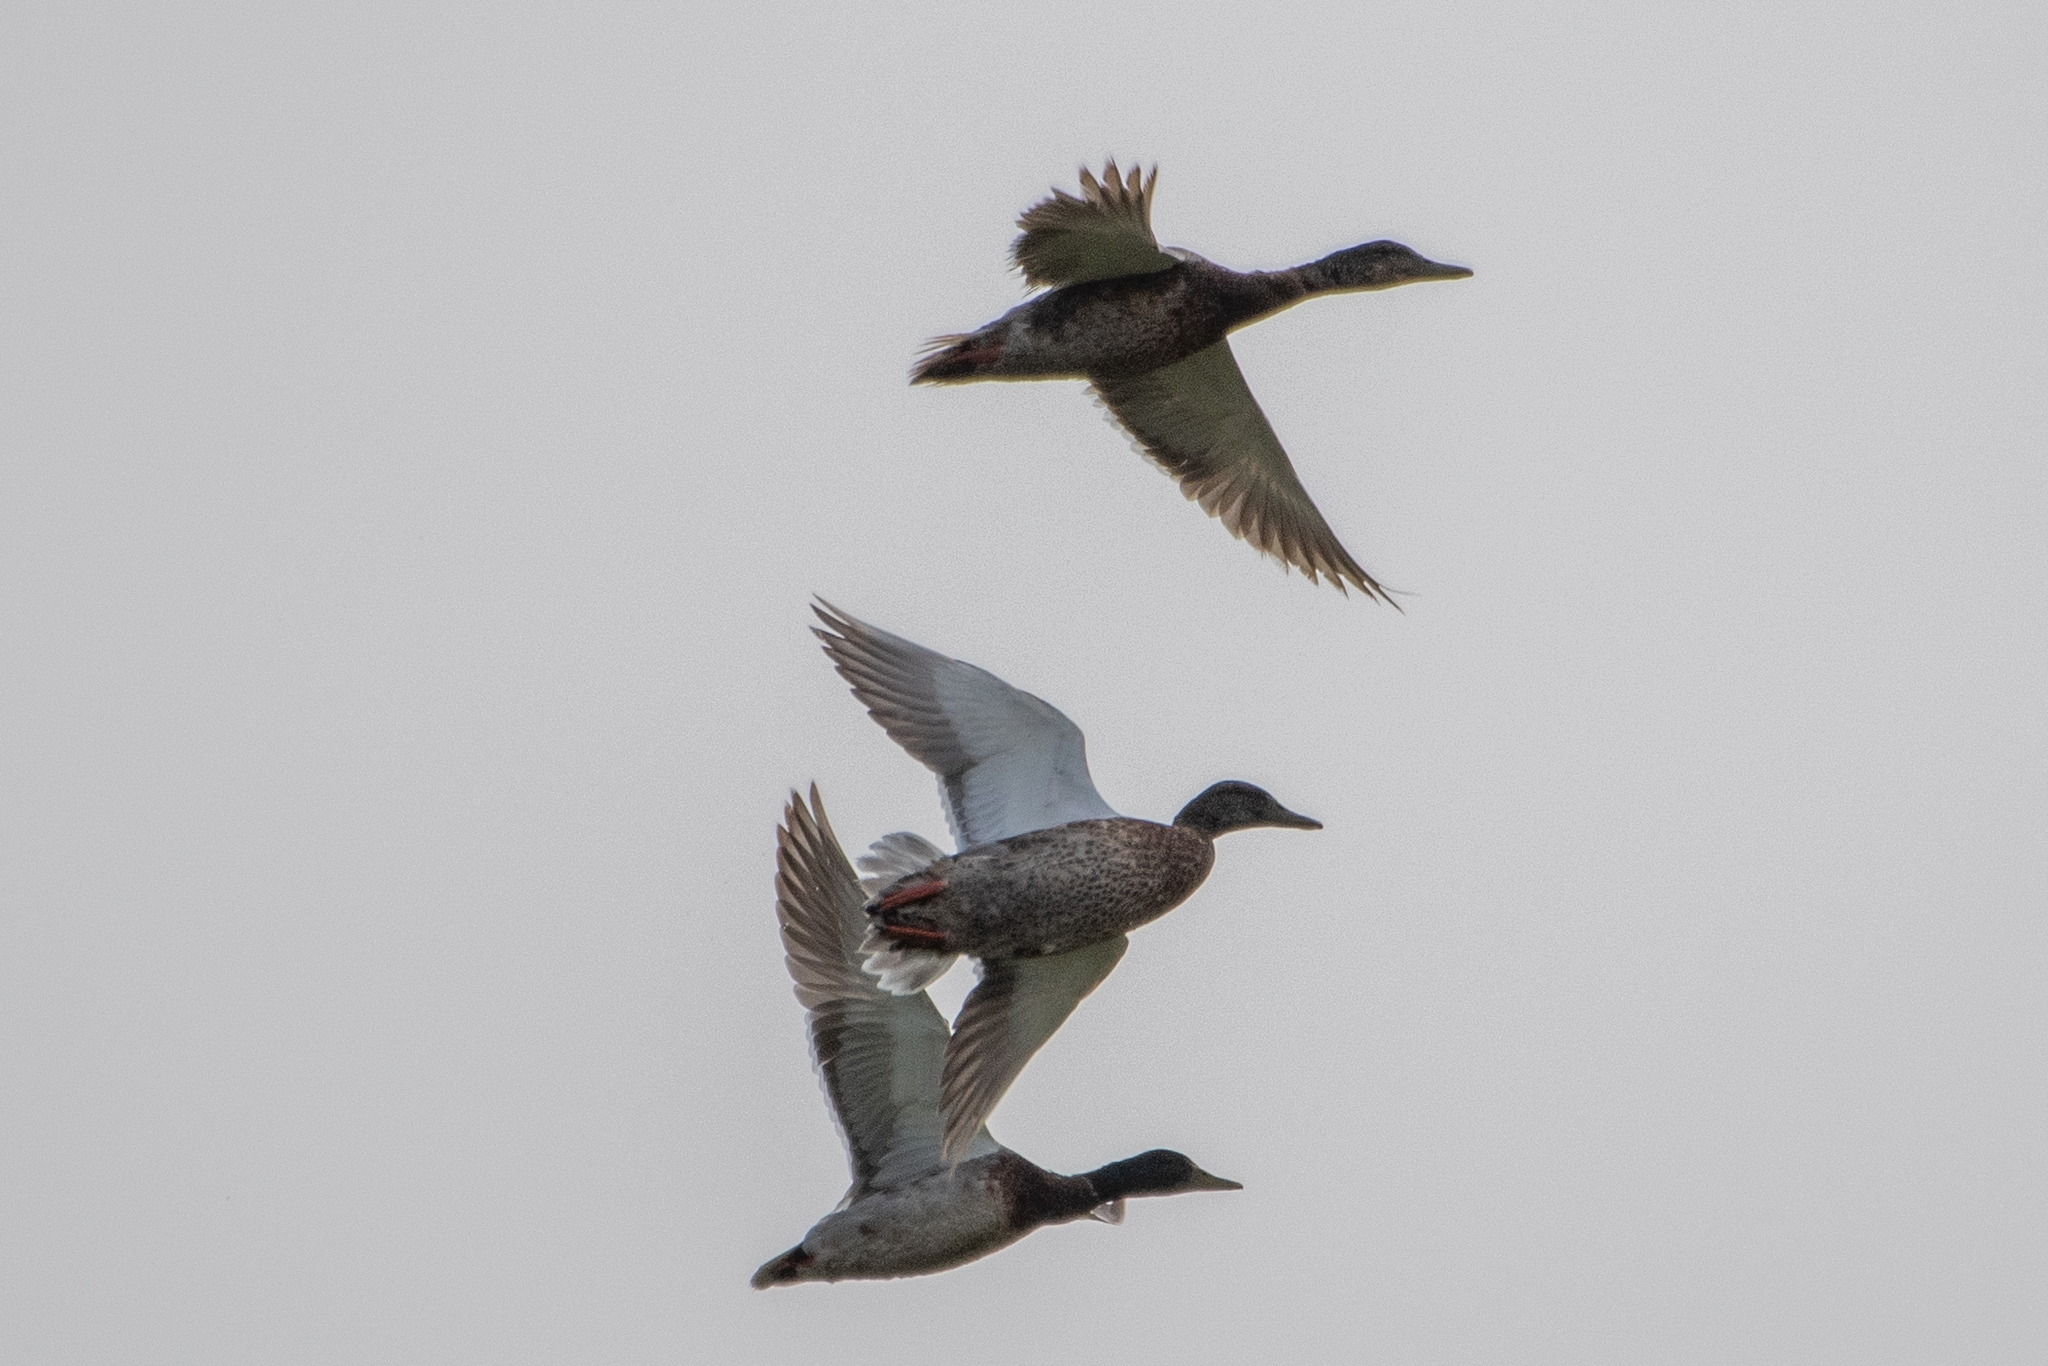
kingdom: Animalia
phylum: Chordata
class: Aves
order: Anseriformes
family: Anatidae
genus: Anas
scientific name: Anas platyrhynchos
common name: Mallard
